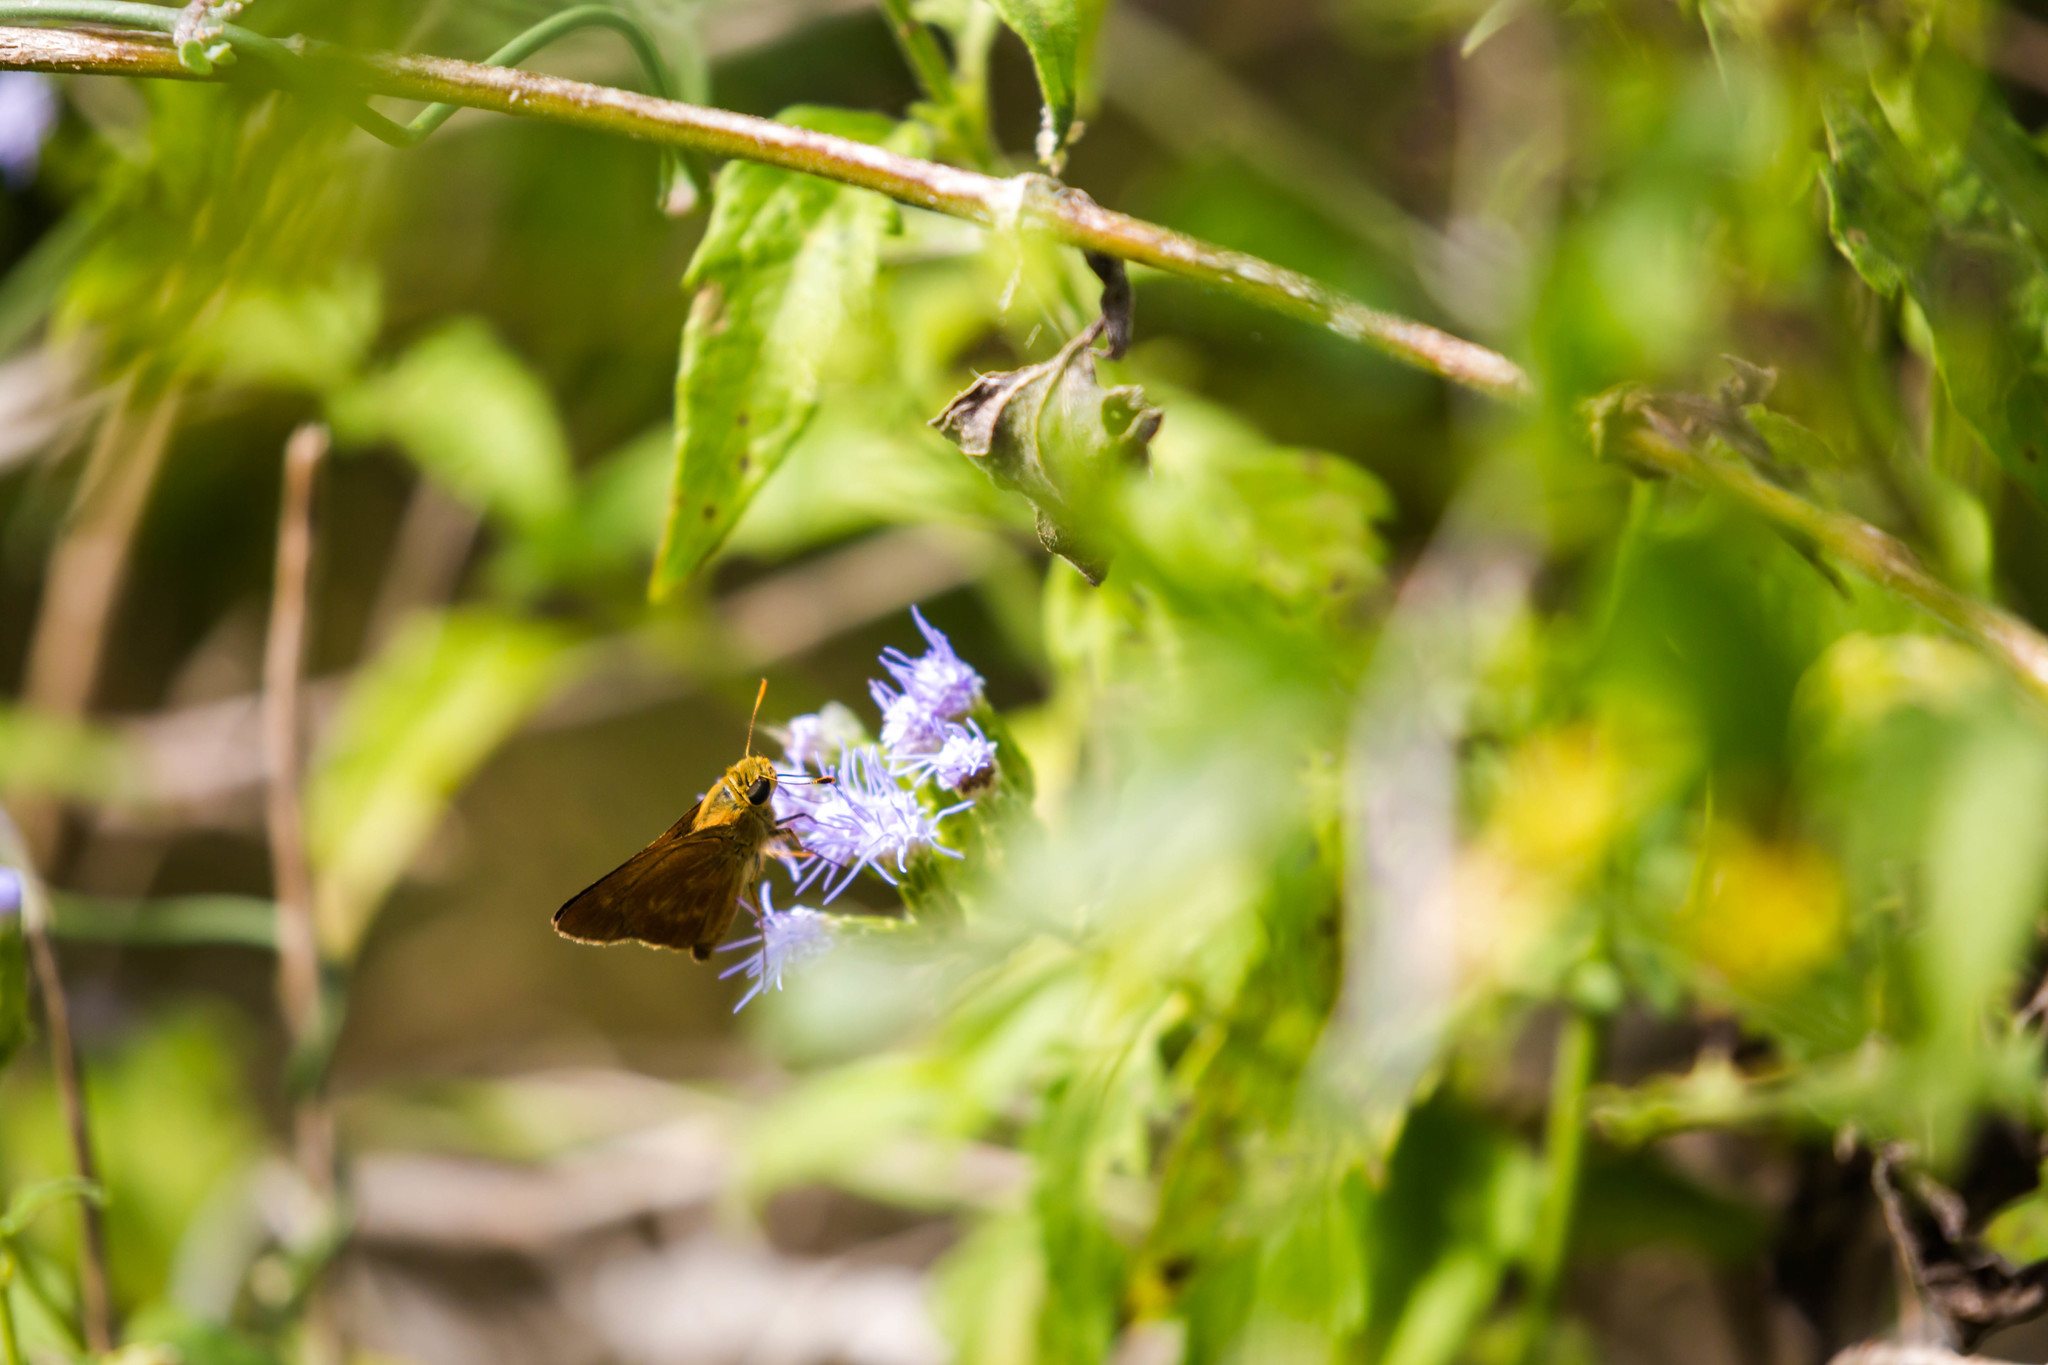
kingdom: Animalia
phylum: Arthropoda
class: Insecta
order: Lepidoptera
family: Hesperiidae
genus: Polites
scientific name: Polites otho
